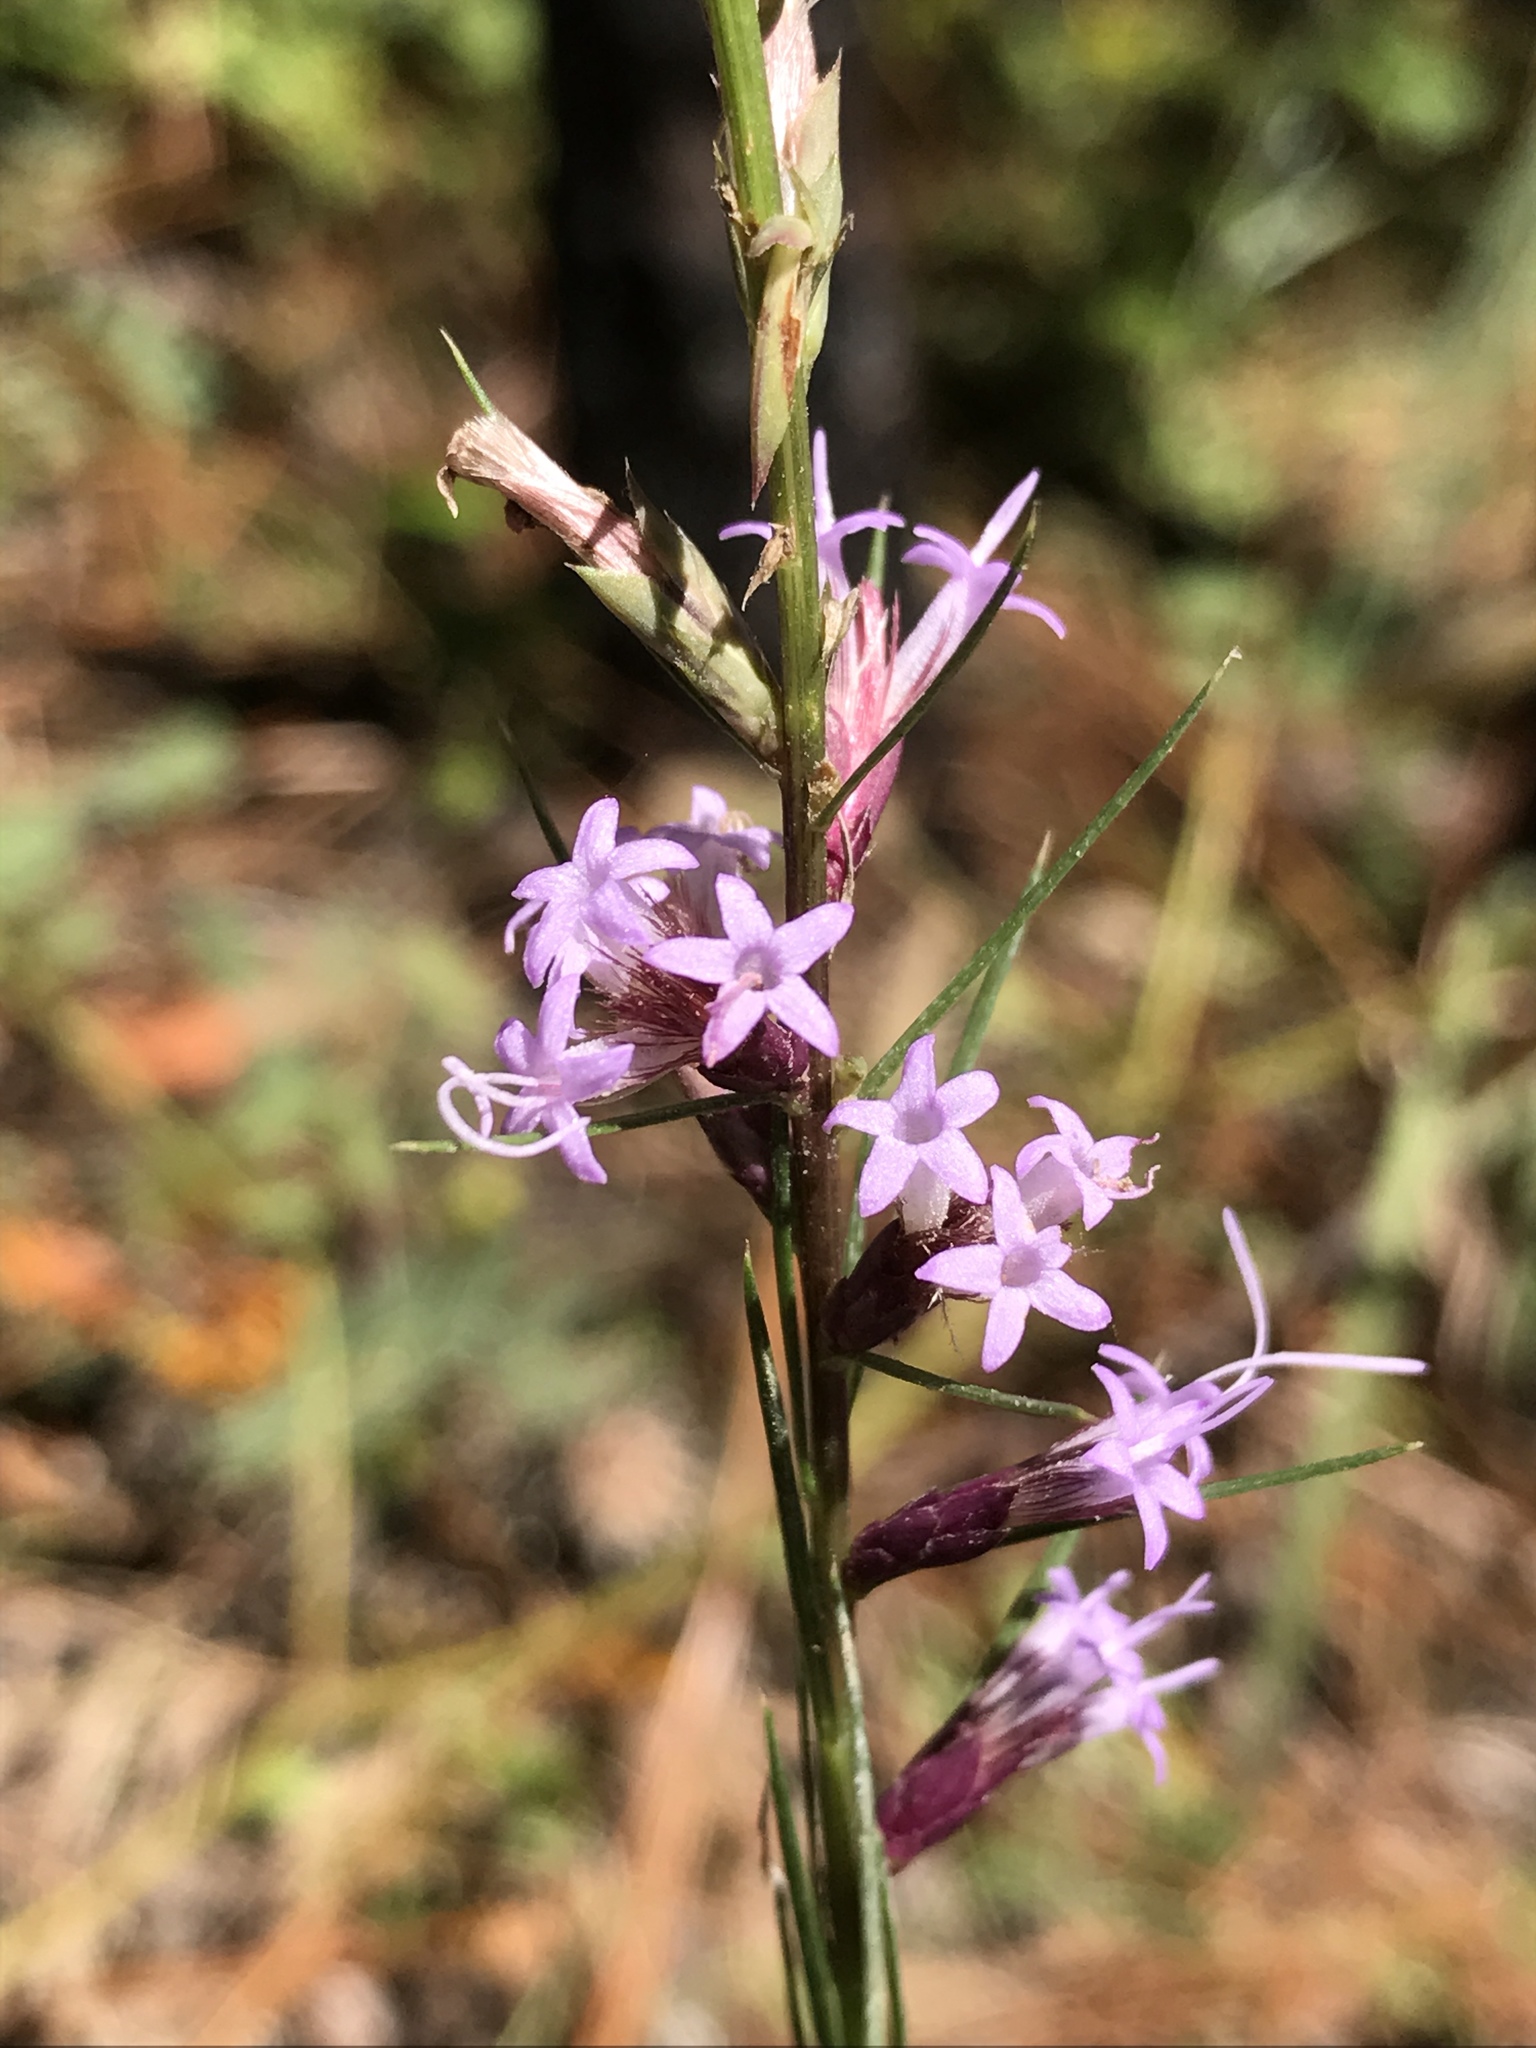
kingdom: Plantae
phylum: Tracheophyta
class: Magnoliopsida
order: Asterales
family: Asteraceae
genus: Liatris
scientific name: Liatris acidota
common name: Gulf coast gayfeather
